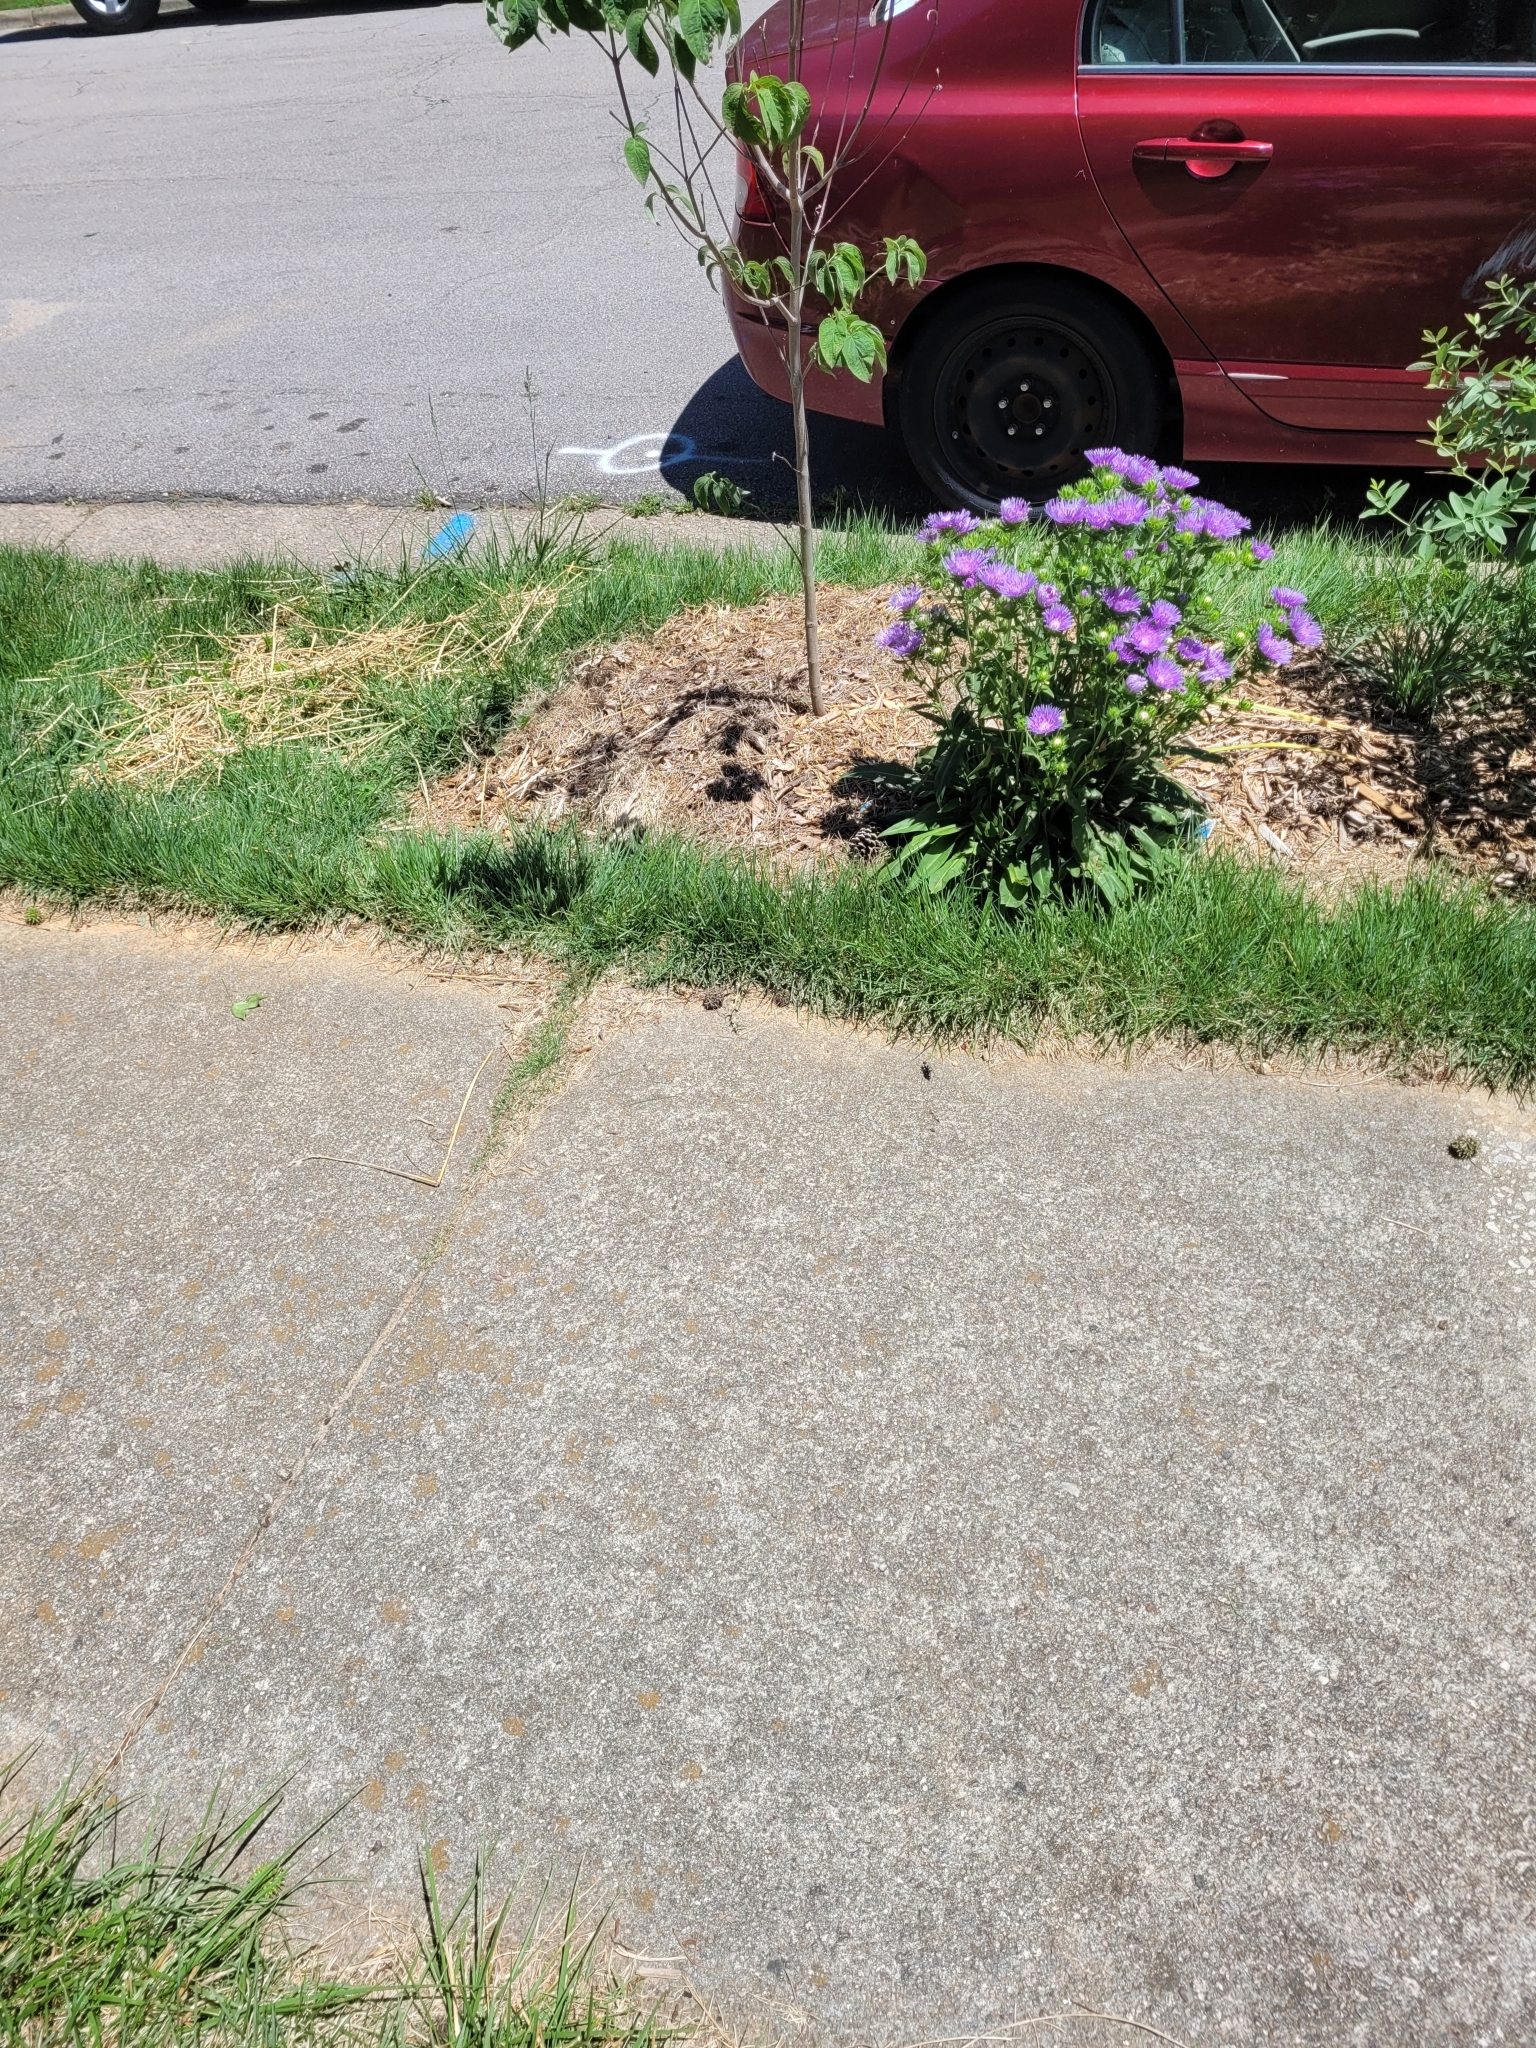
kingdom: Animalia
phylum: Arthropoda
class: Insecta
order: Hymenoptera
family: Sphecidae
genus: Chlorion
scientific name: Chlorion aerarium
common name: Steel-blue cricket hunter
